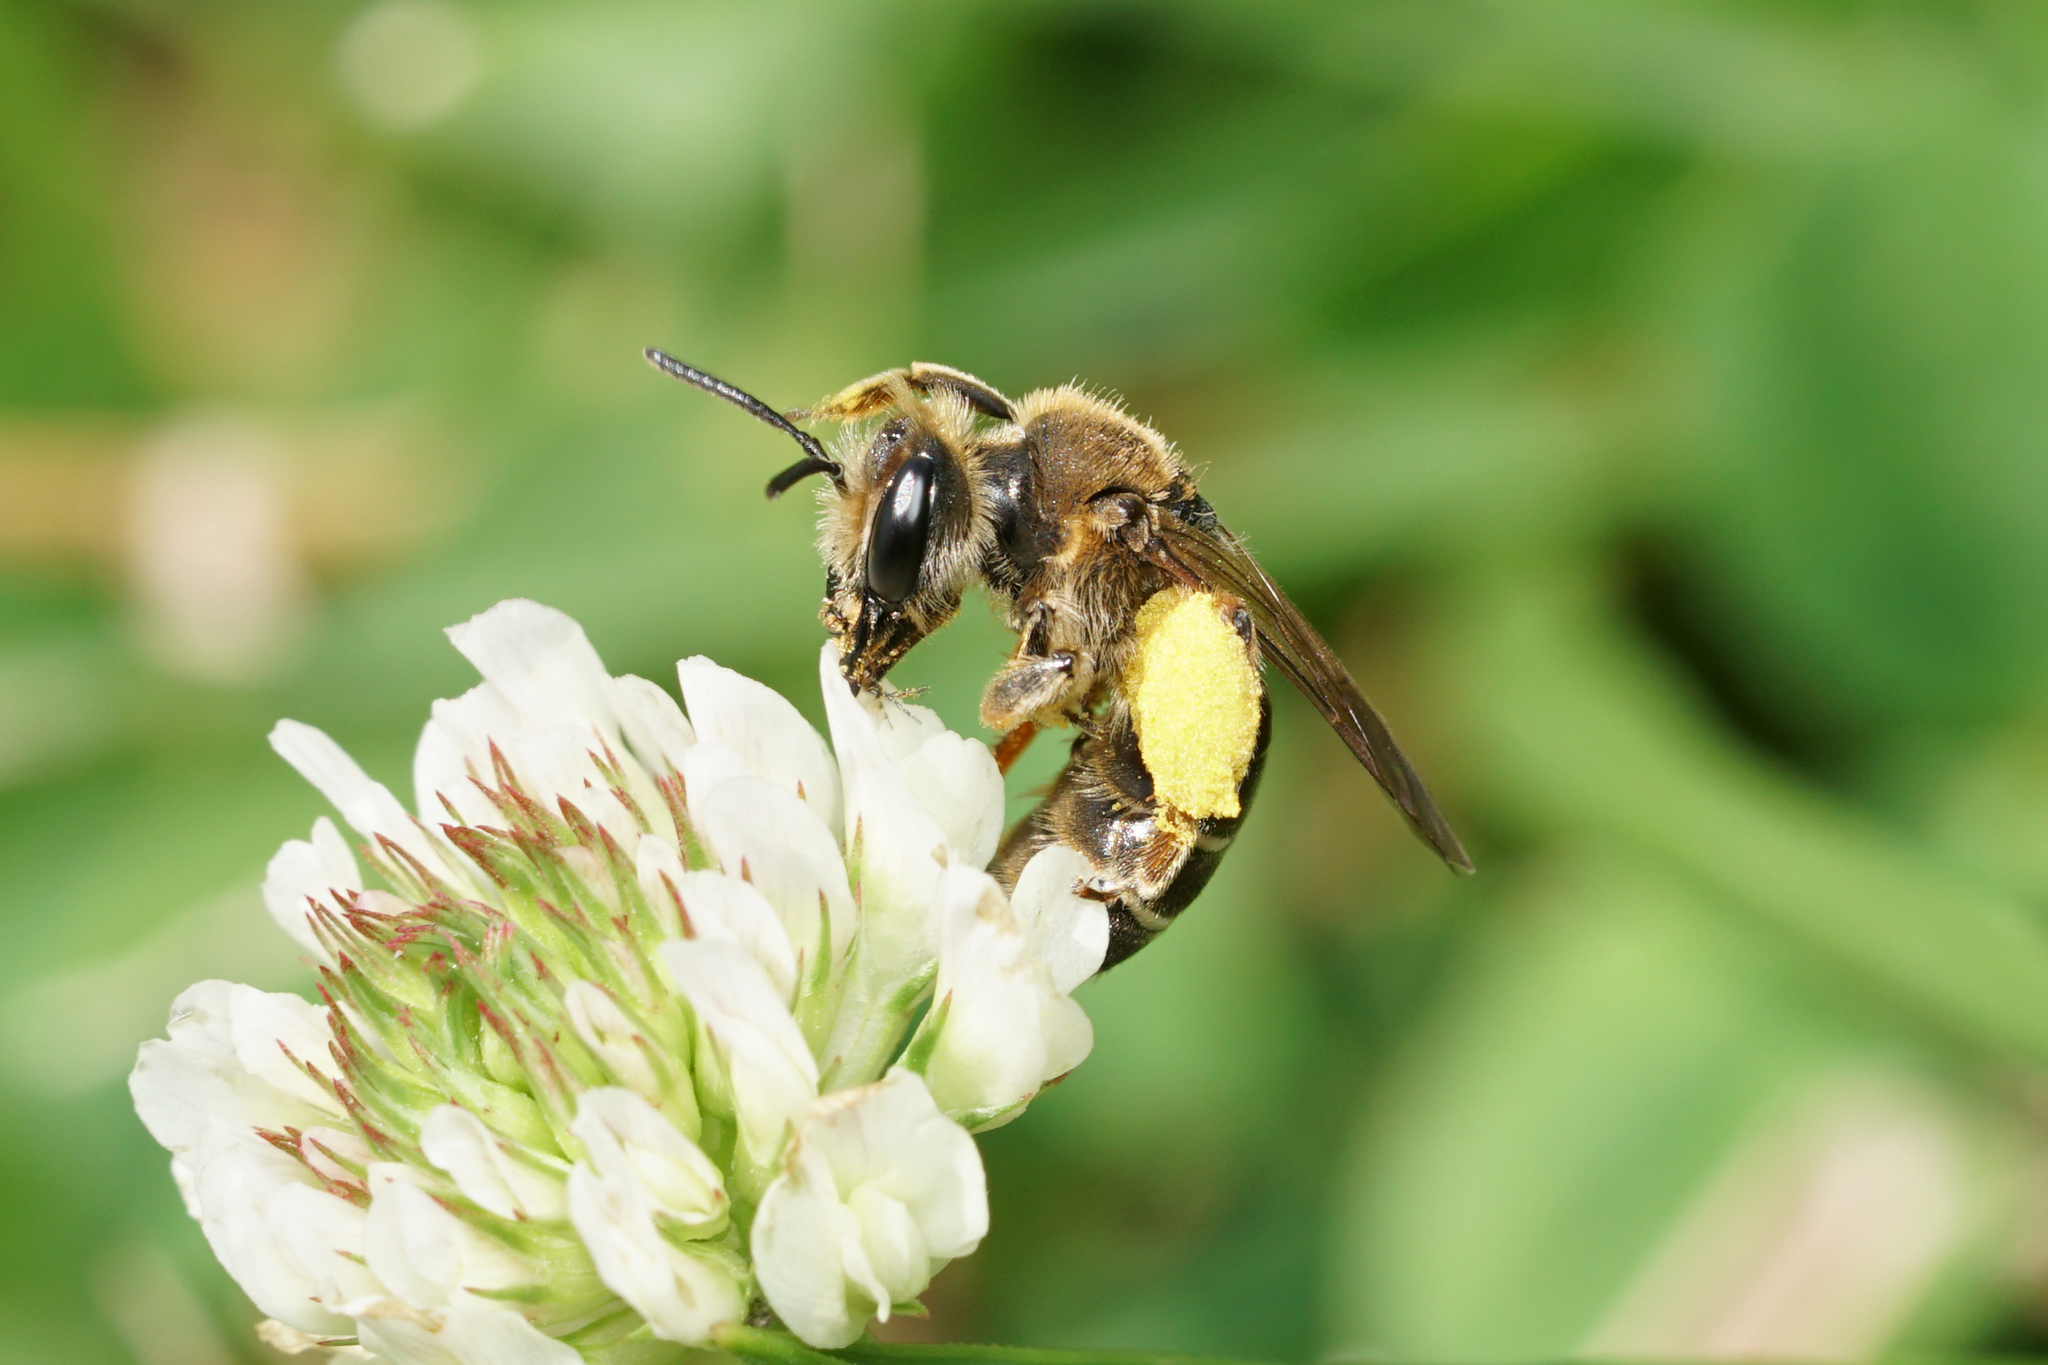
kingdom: Animalia
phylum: Arthropoda
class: Insecta
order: Hymenoptera
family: Andrenidae
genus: Andrena
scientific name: Andrena wilkella
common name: Wilke's mining bee
